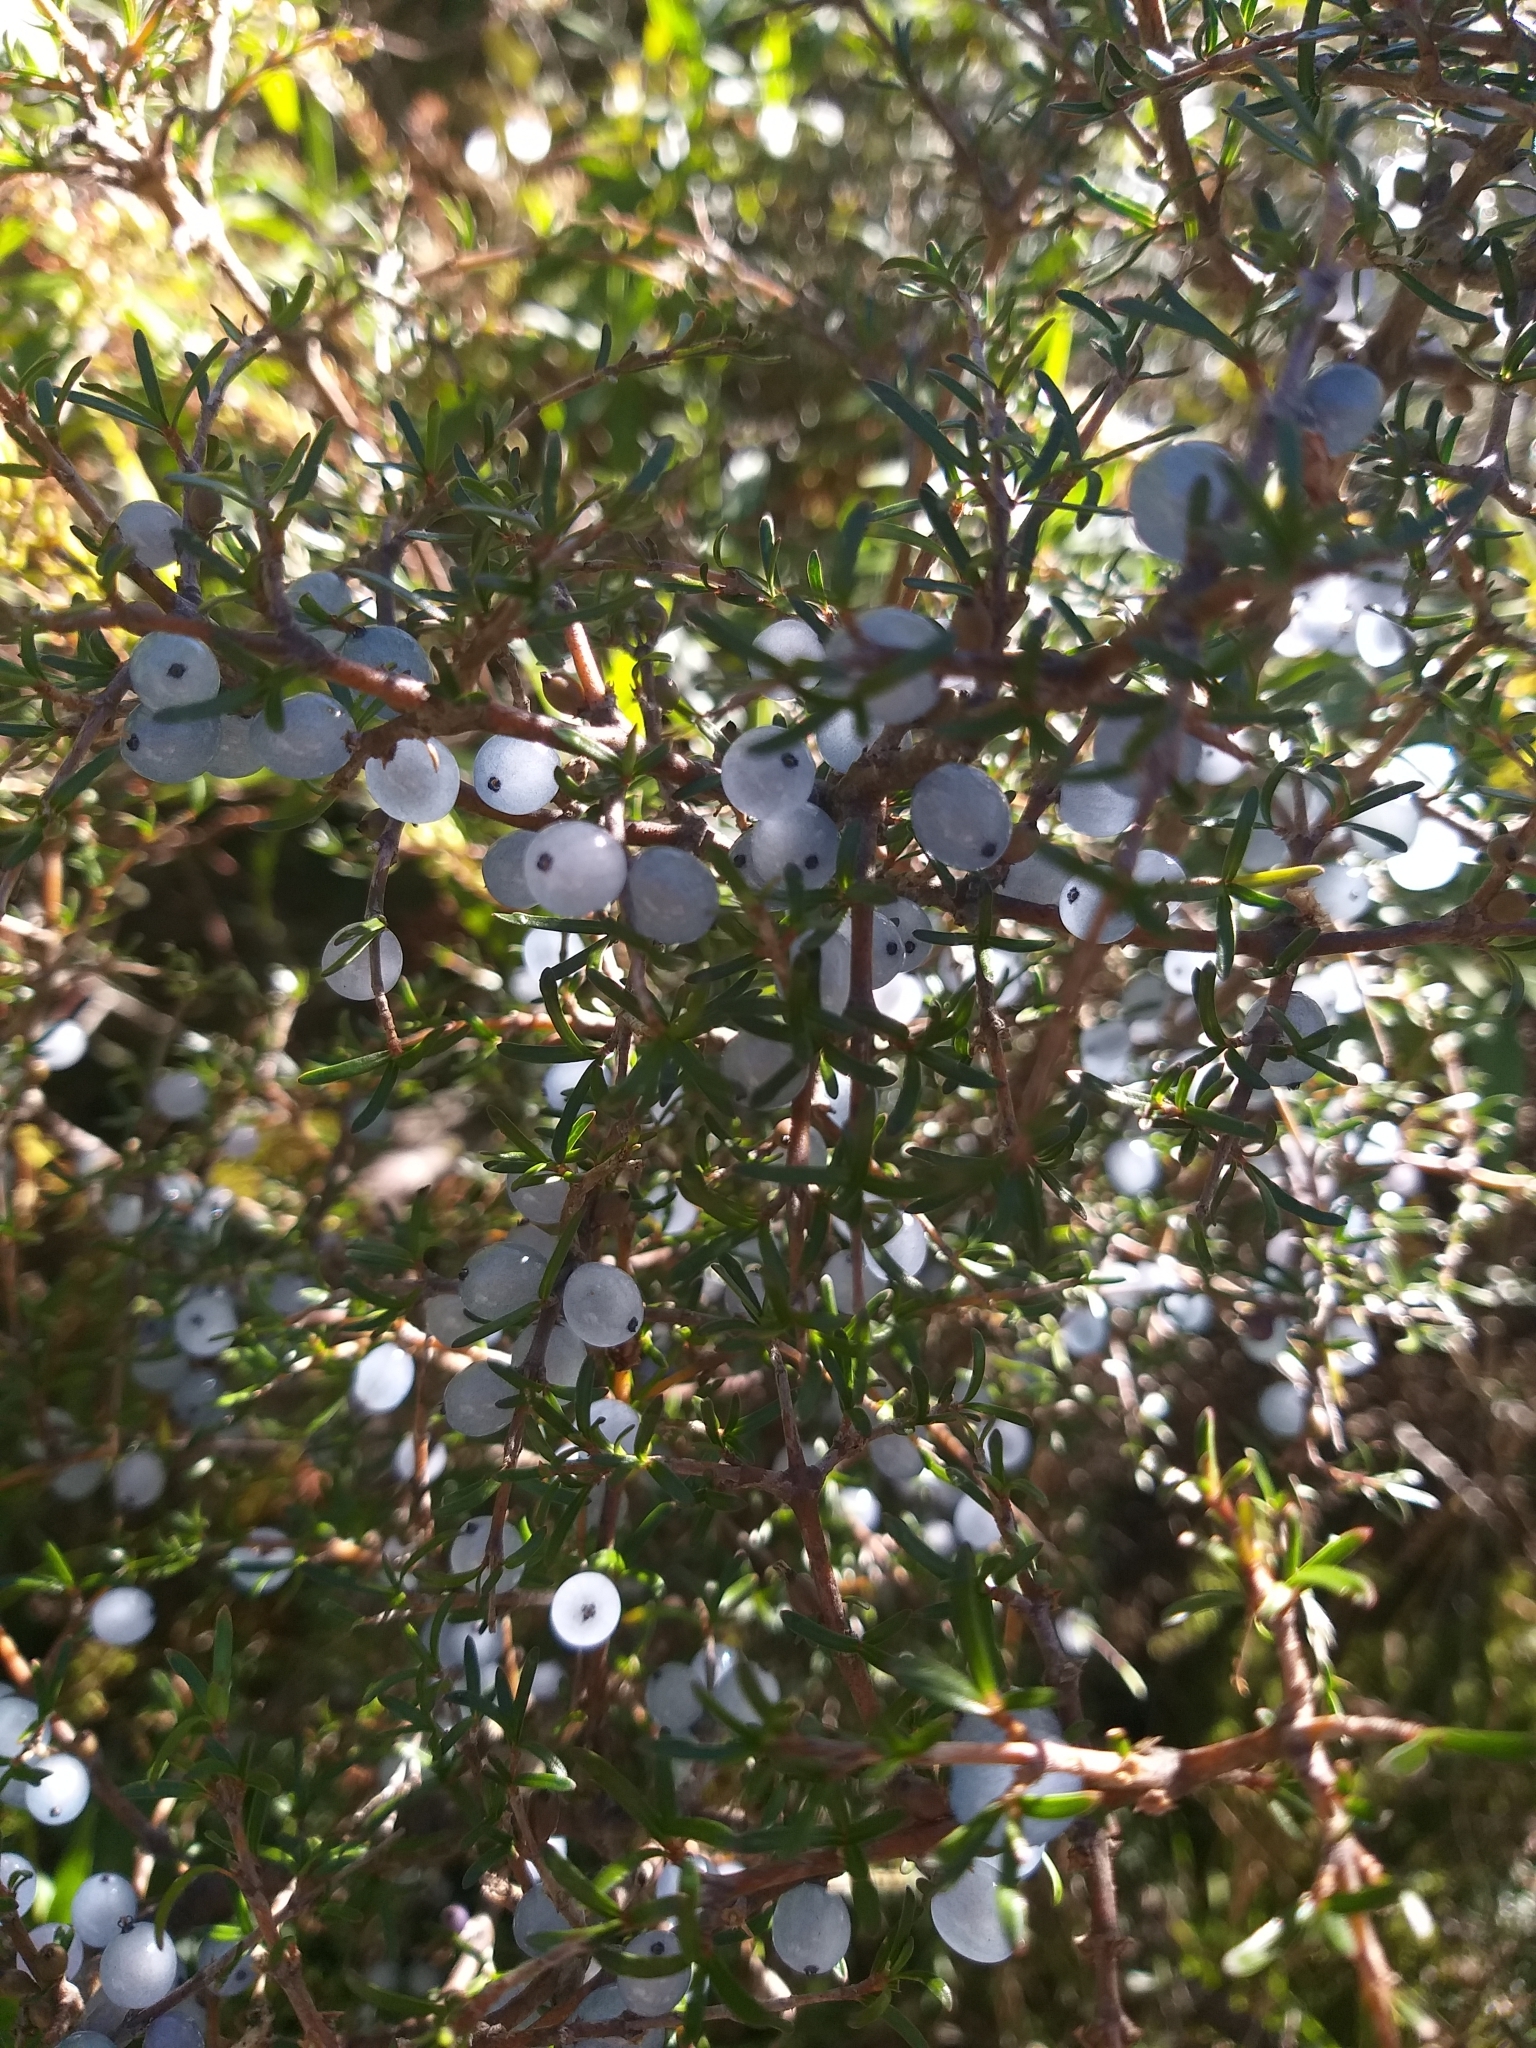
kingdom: Plantae
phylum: Tracheophyta
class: Magnoliopsida
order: Gentianales
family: Rubiaceae
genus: Coprosma
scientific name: Coprosma rugosa
